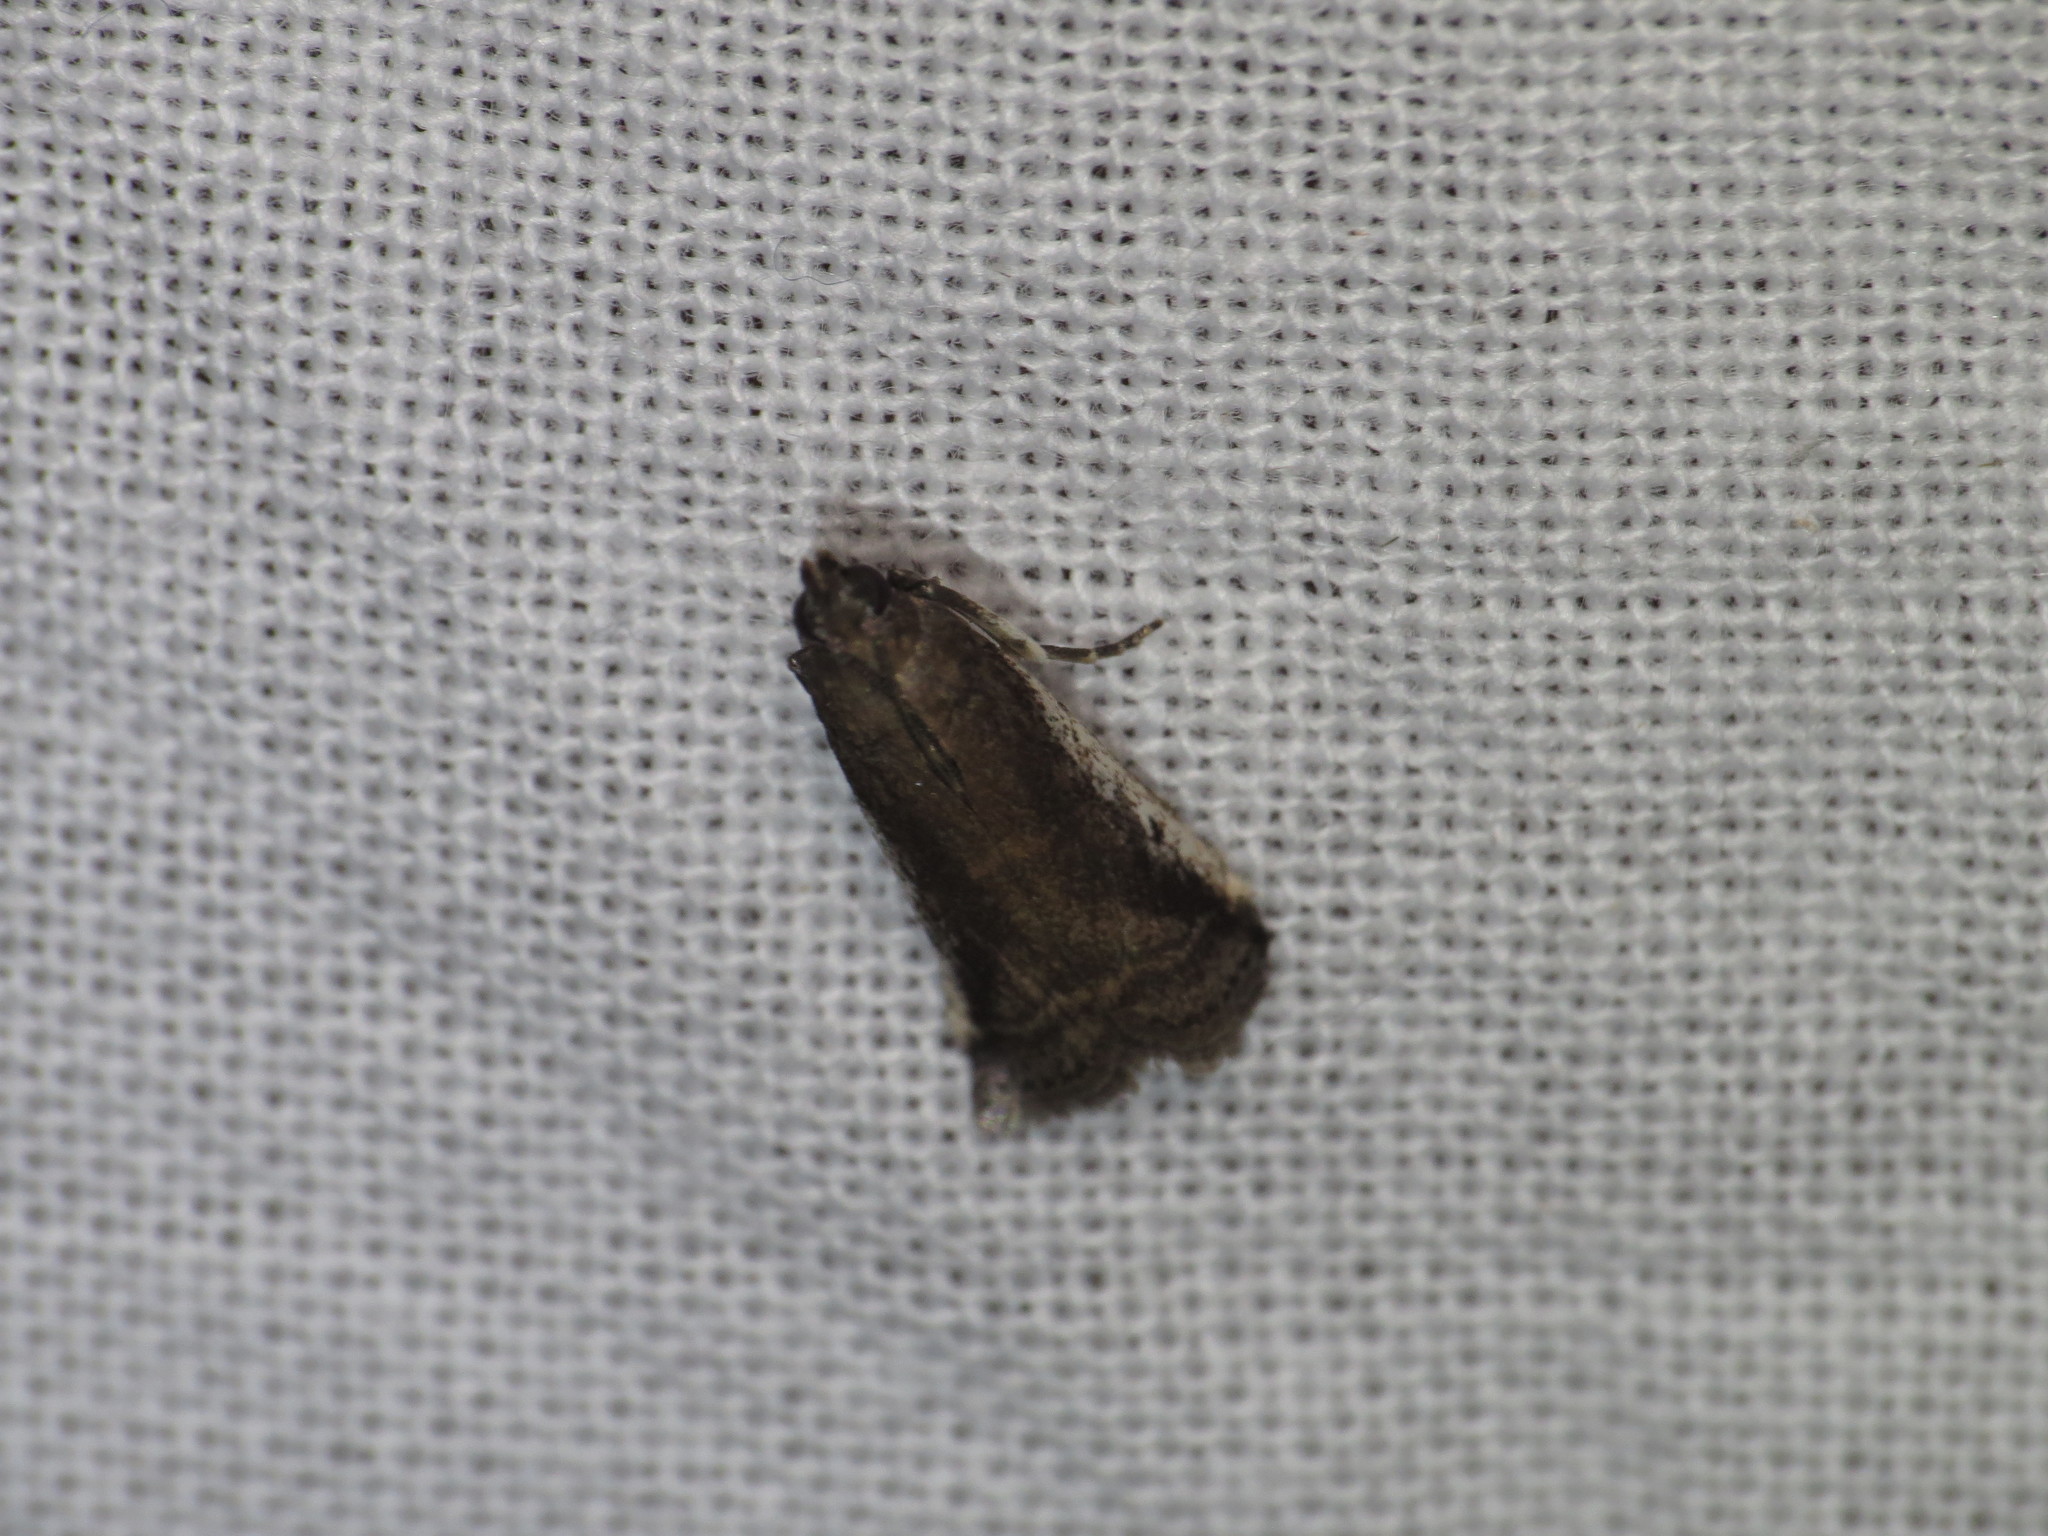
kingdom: Animalia
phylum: Arthropoda
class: Insecta
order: Lepidoptera
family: Pyralidae
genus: Assara
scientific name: Assara subarcuella
